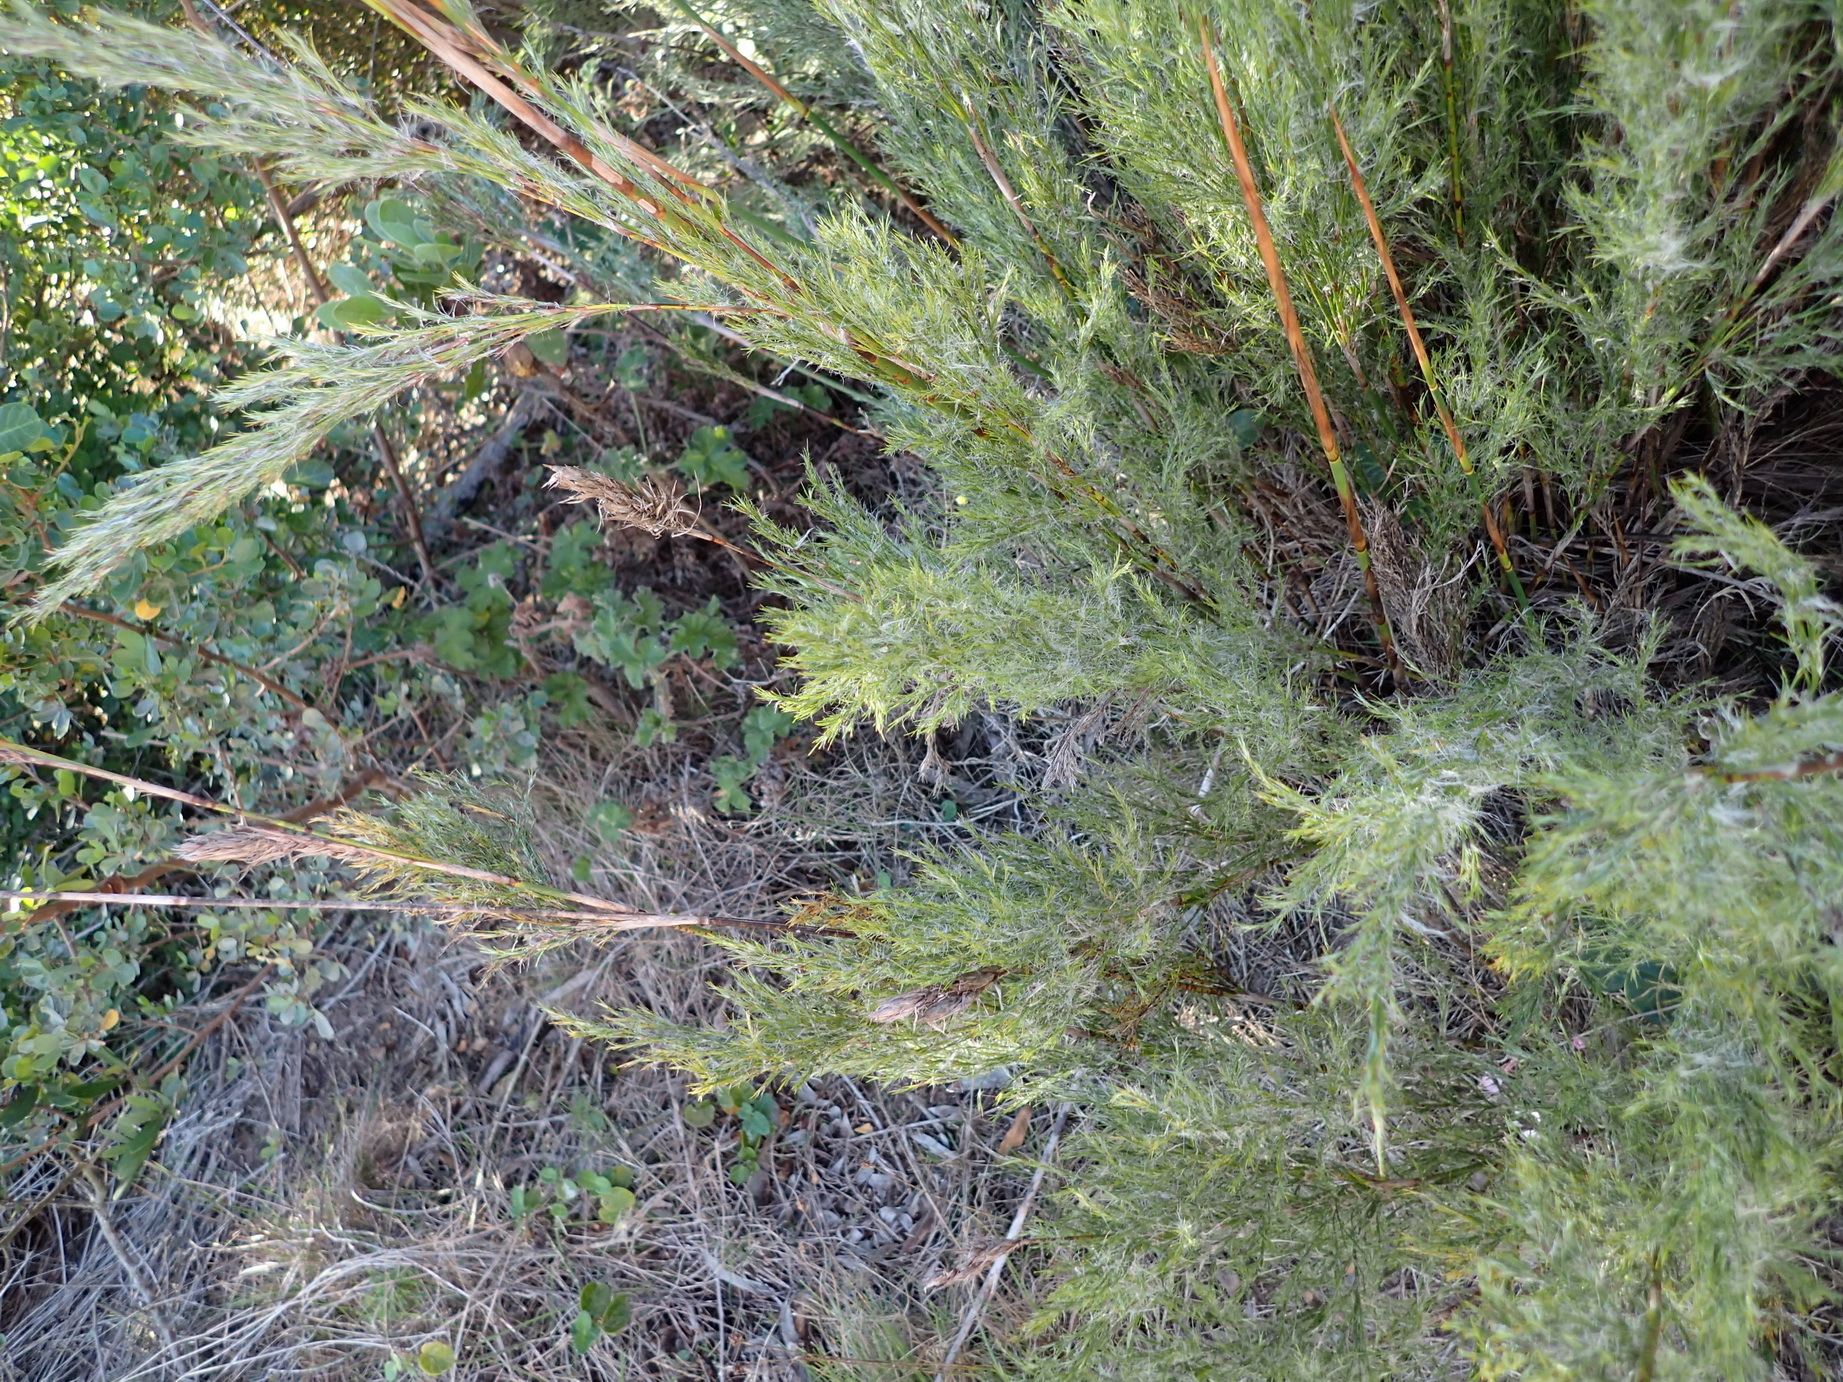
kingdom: Plantae
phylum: Tracheophyta
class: Liliopsida
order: Poales
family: Restionaceae
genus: Thamnochortus
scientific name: Thamnochortus glaber
